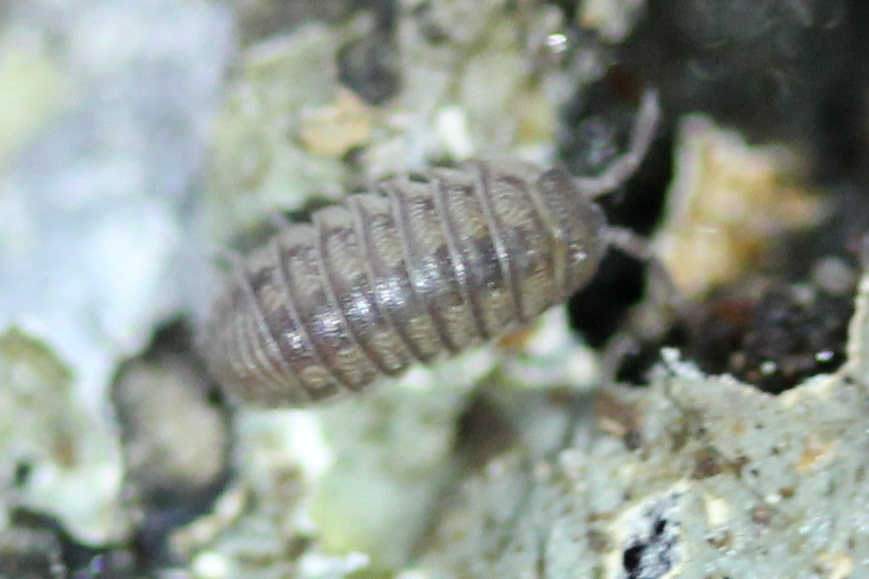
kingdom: Animalia
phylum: Arthropoda
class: Malacostraca
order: Isopoda
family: Armadillidiidae
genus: Armadillidium
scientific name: Armadillidium nasatum
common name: Isopod
